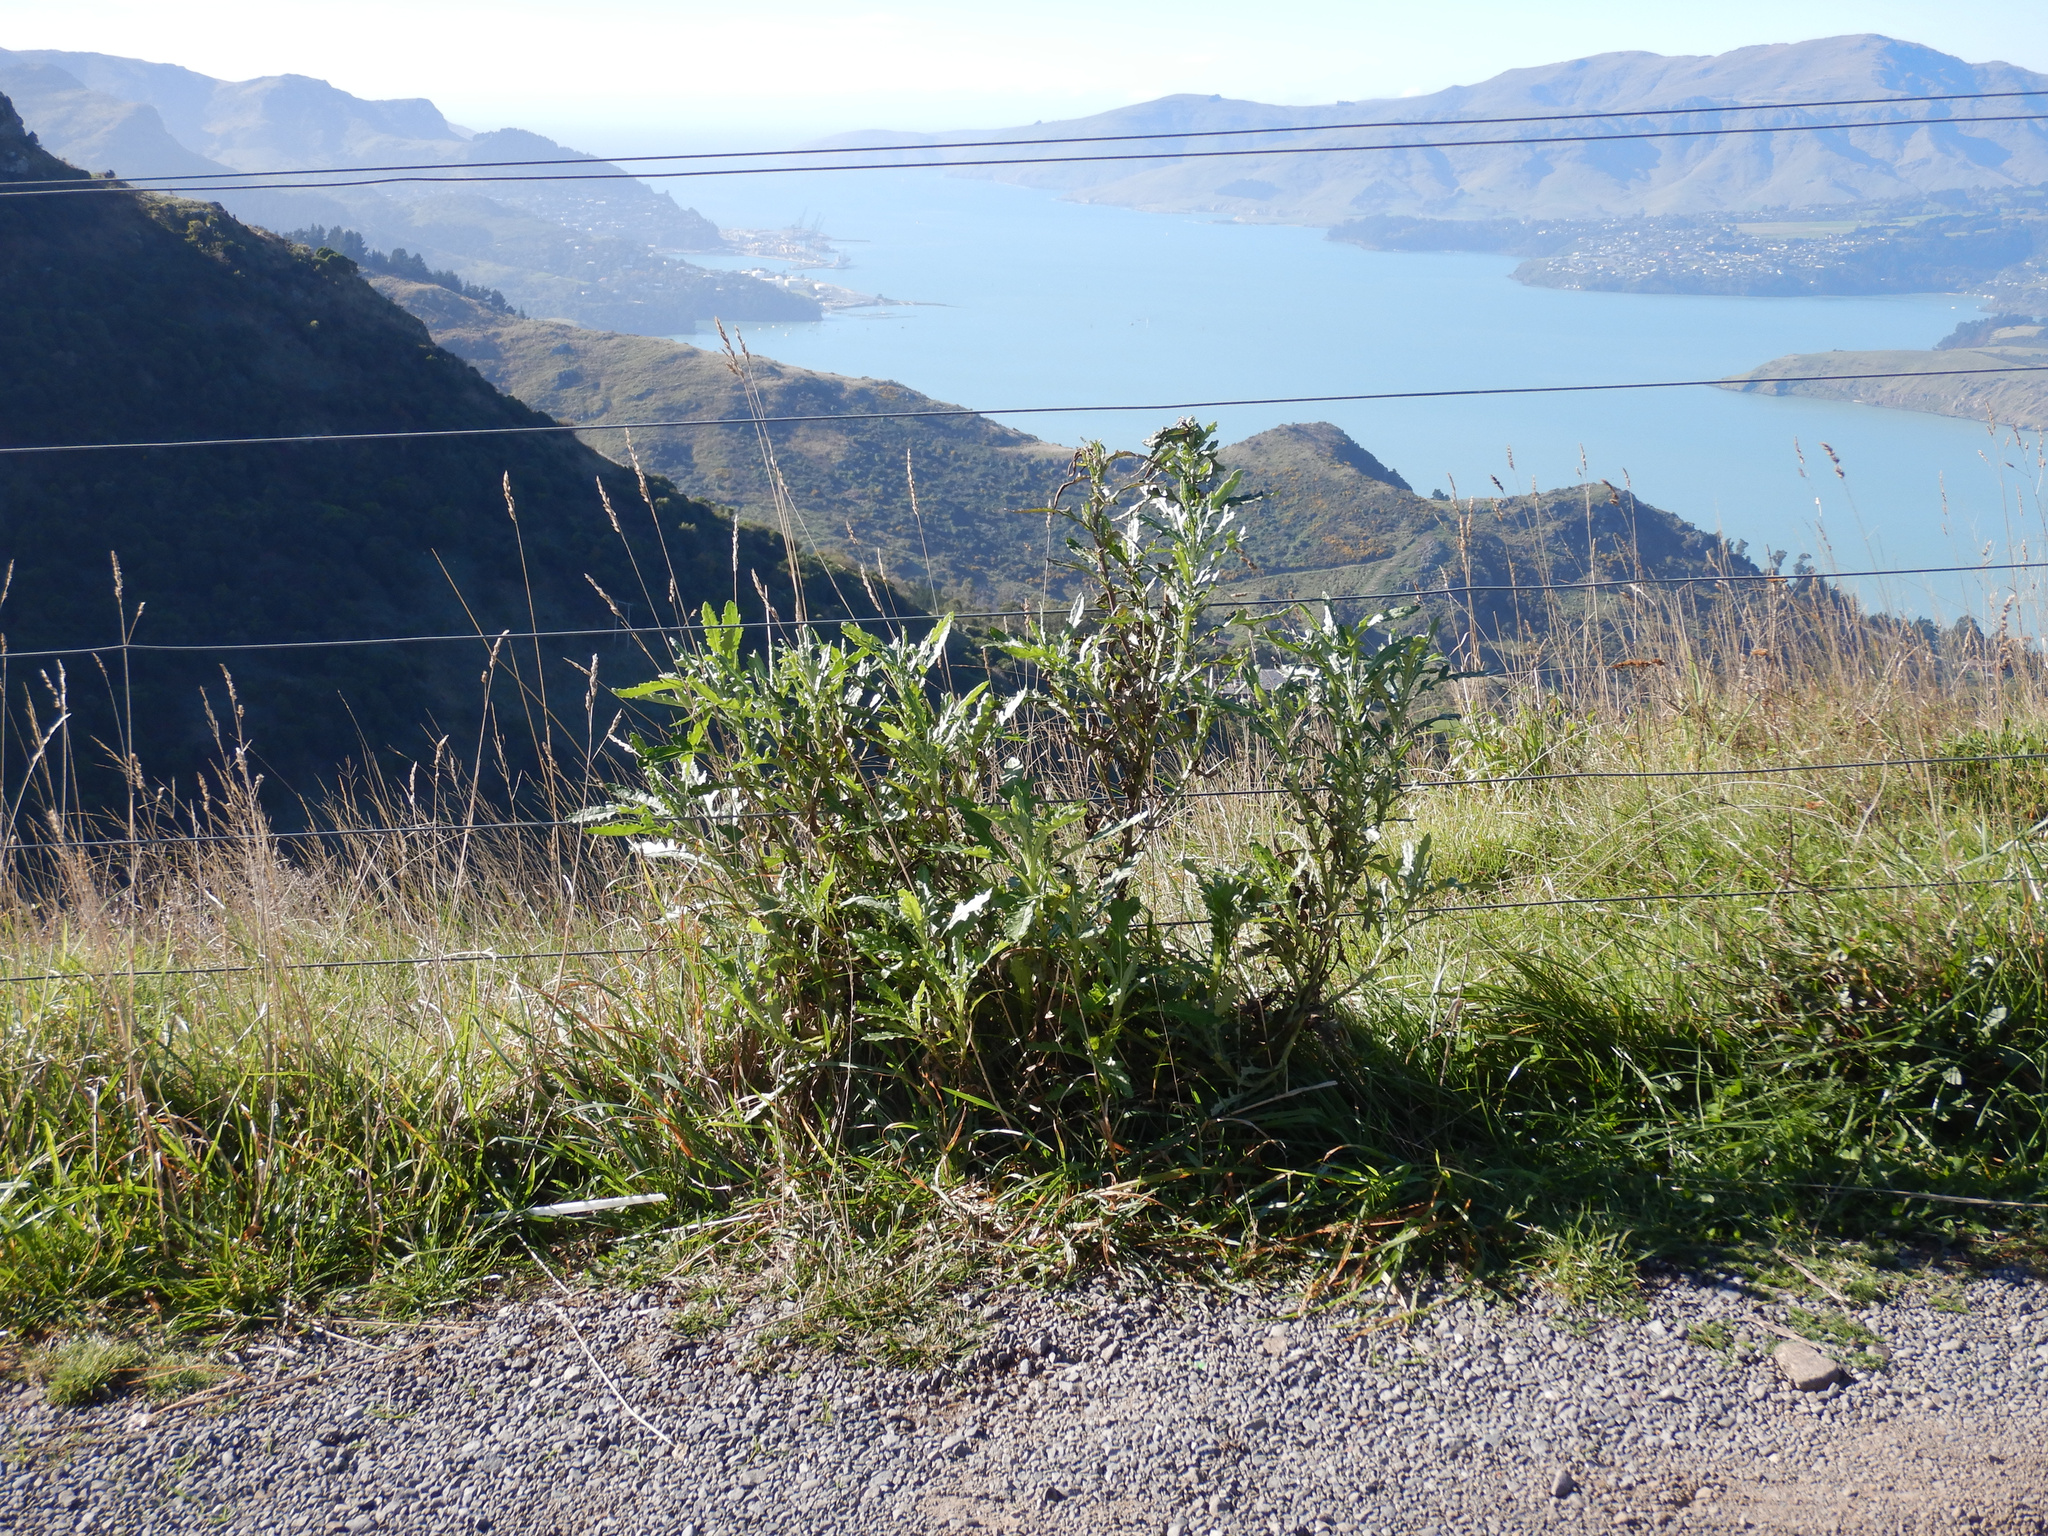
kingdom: Plantae
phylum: Tracheophyta
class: Magnoliopsida
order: Asterales
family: Asteraceae
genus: Senecio
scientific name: Senecio glomeratus
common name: Cutleaf burnweed
